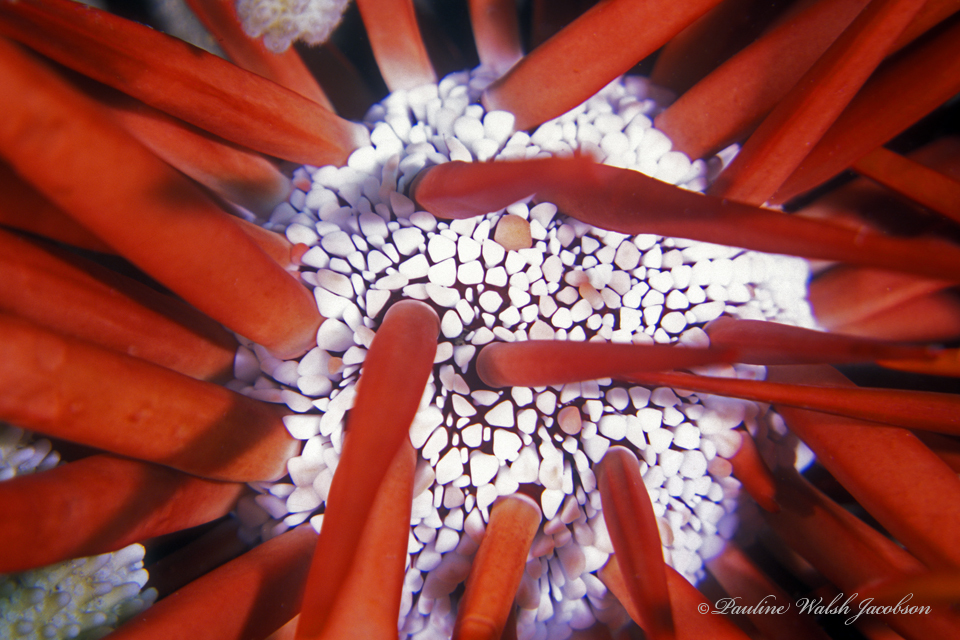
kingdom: Animalia
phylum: Echinodermata
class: Echinoidea
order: Camarodonta
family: Echinometridae
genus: Heterocentrotus
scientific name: Heterocentrotus mamillatus
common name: Slate pencil urchin
